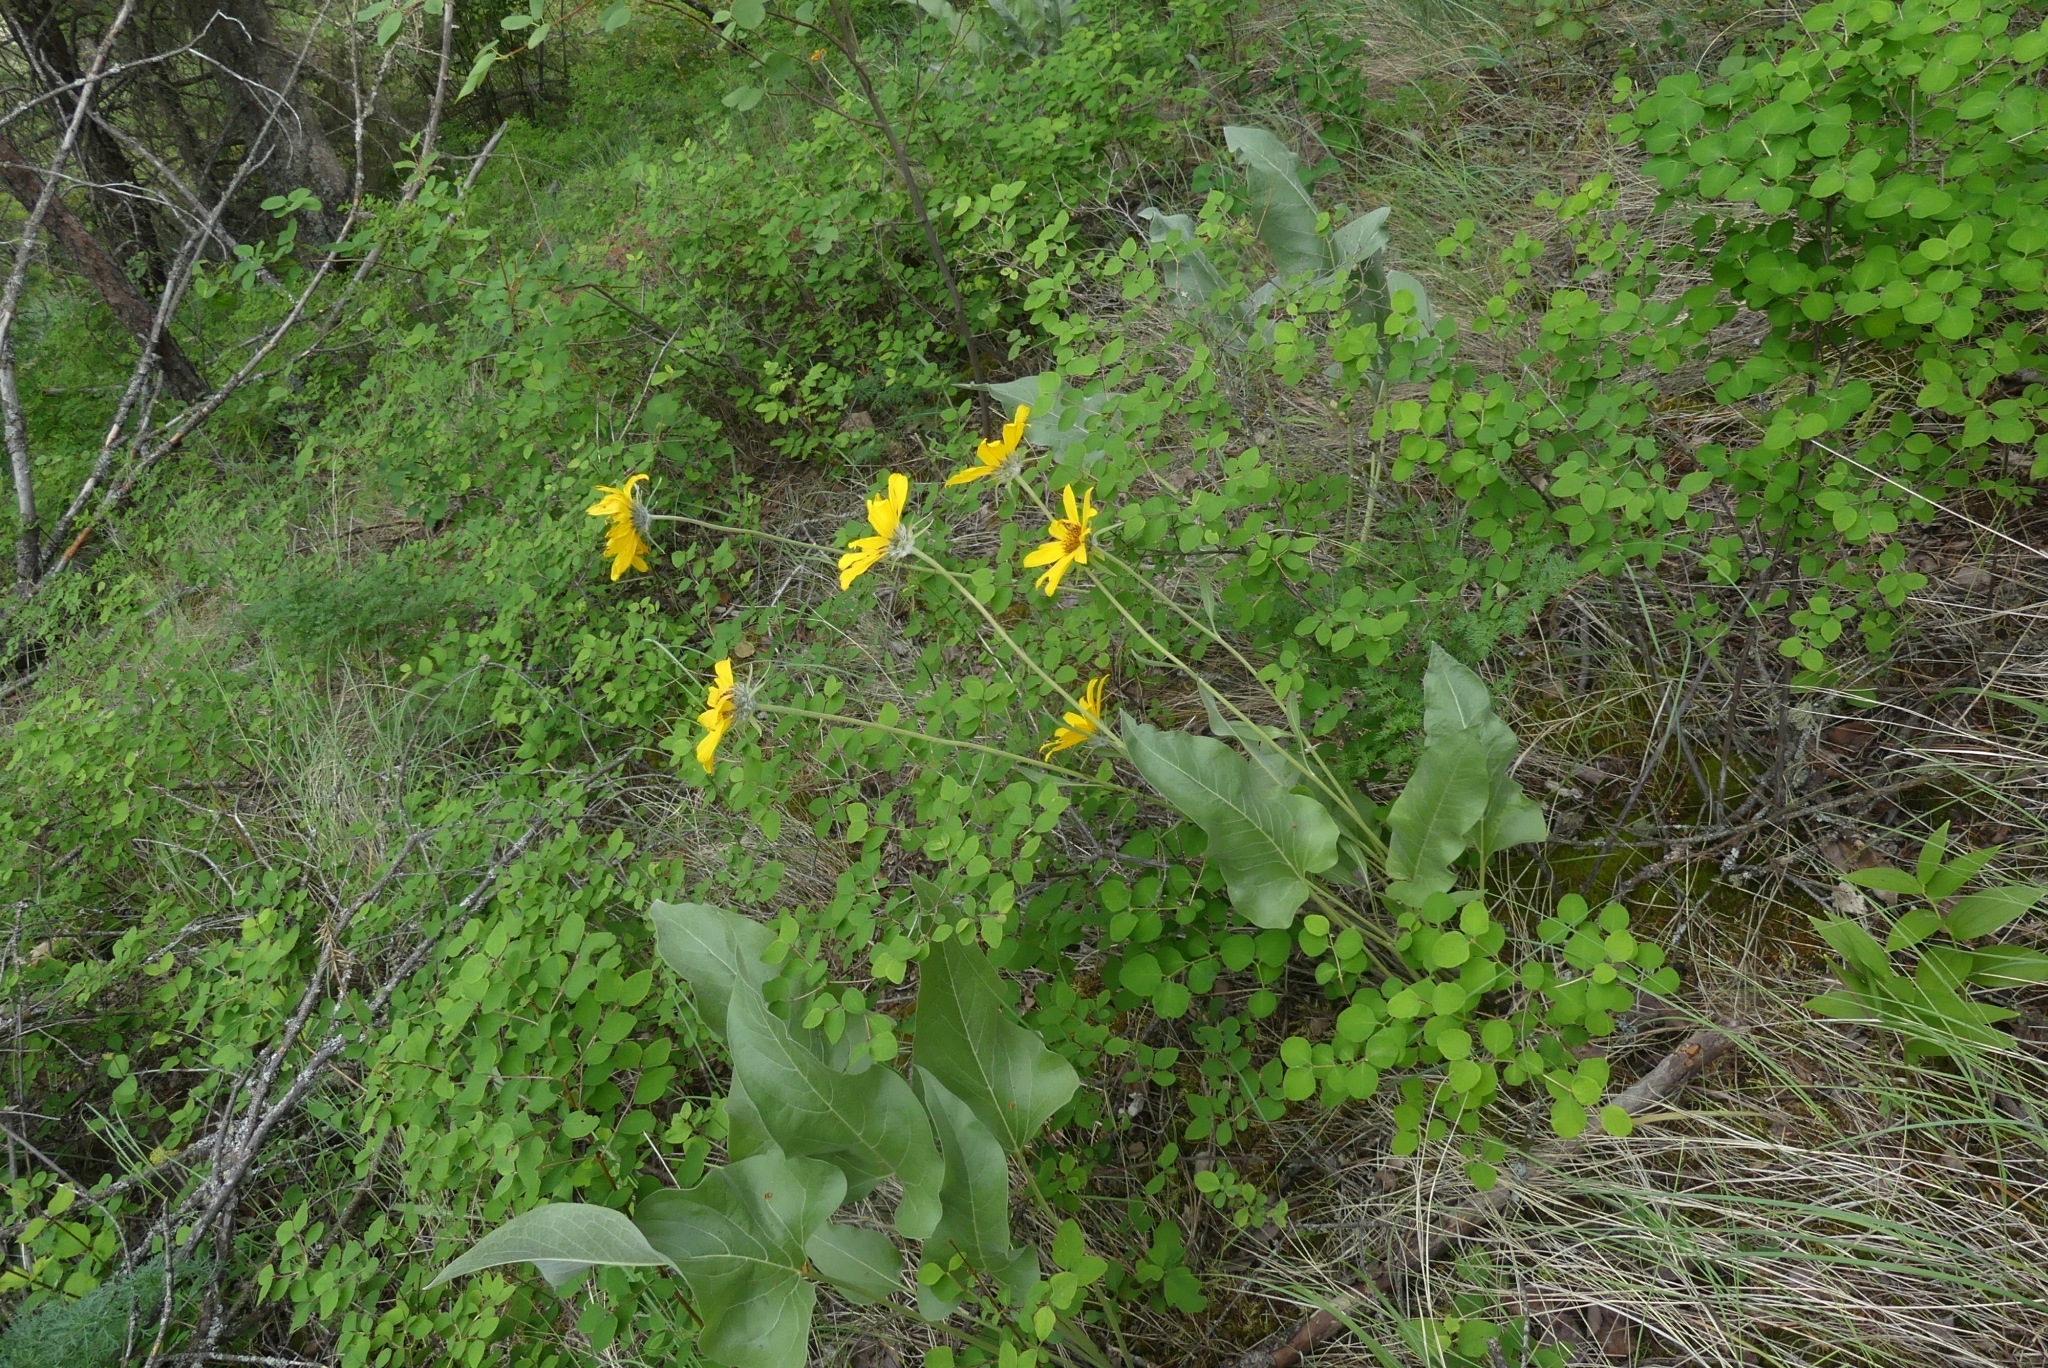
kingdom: Plantae
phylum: Tracheophyta
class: Magnoliopsida
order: Asterales
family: Asteraceae
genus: Wyethia
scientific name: Wyethia sagittata
